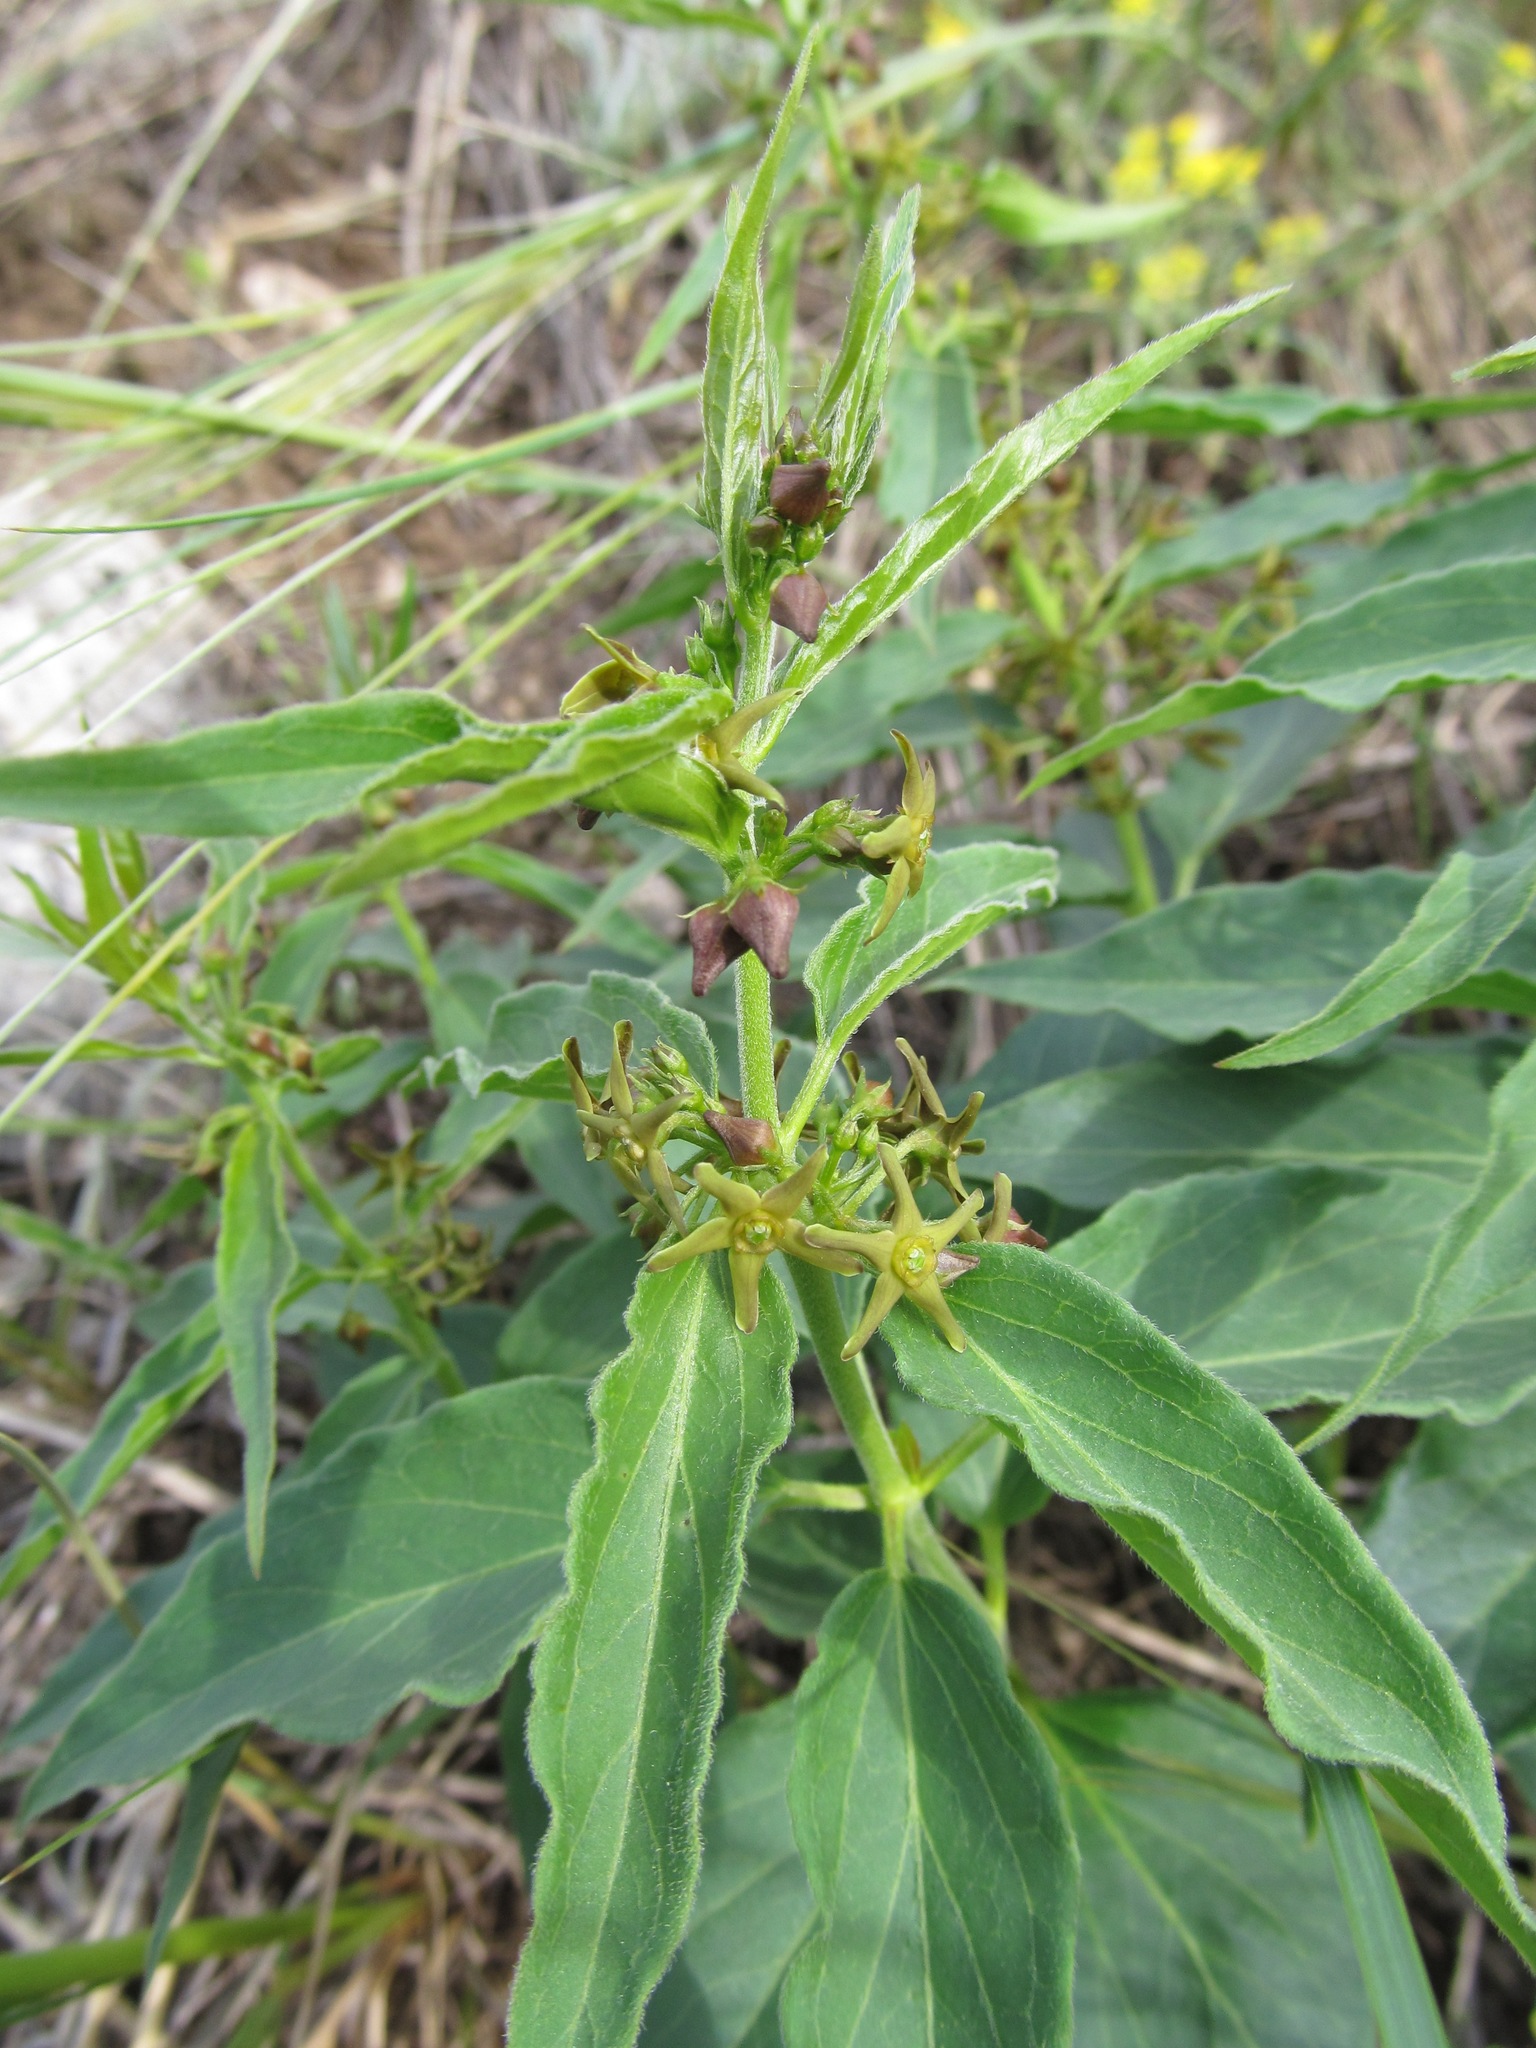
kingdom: Plantae
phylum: Tracheophyta
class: Magnoliopsida
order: Gentianales
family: Apocynaceae
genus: Vincetoxicum
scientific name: Vincetoxicum fuscatum
